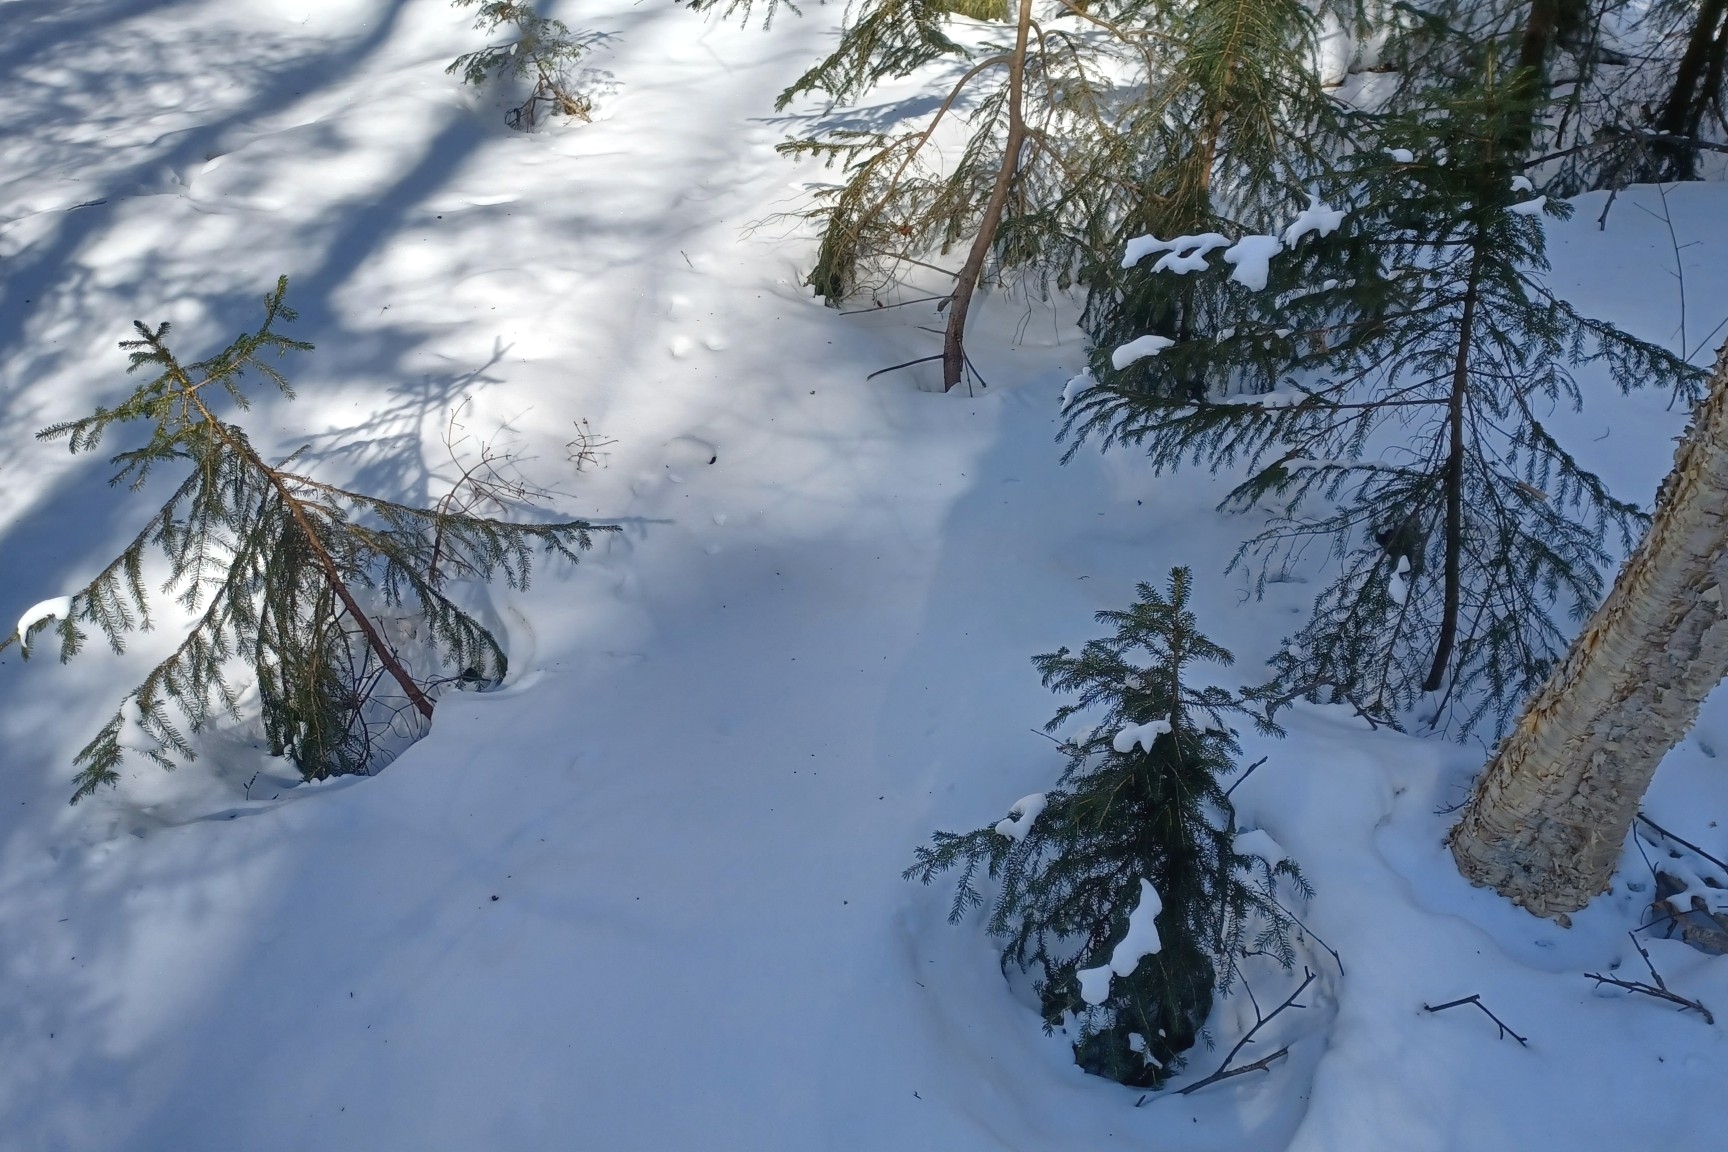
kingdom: Plantae
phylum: Tracheophyta
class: Pinopsida
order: Pinales
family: Pinaceae
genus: Picea
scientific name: Picea rubens
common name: Red spruce
